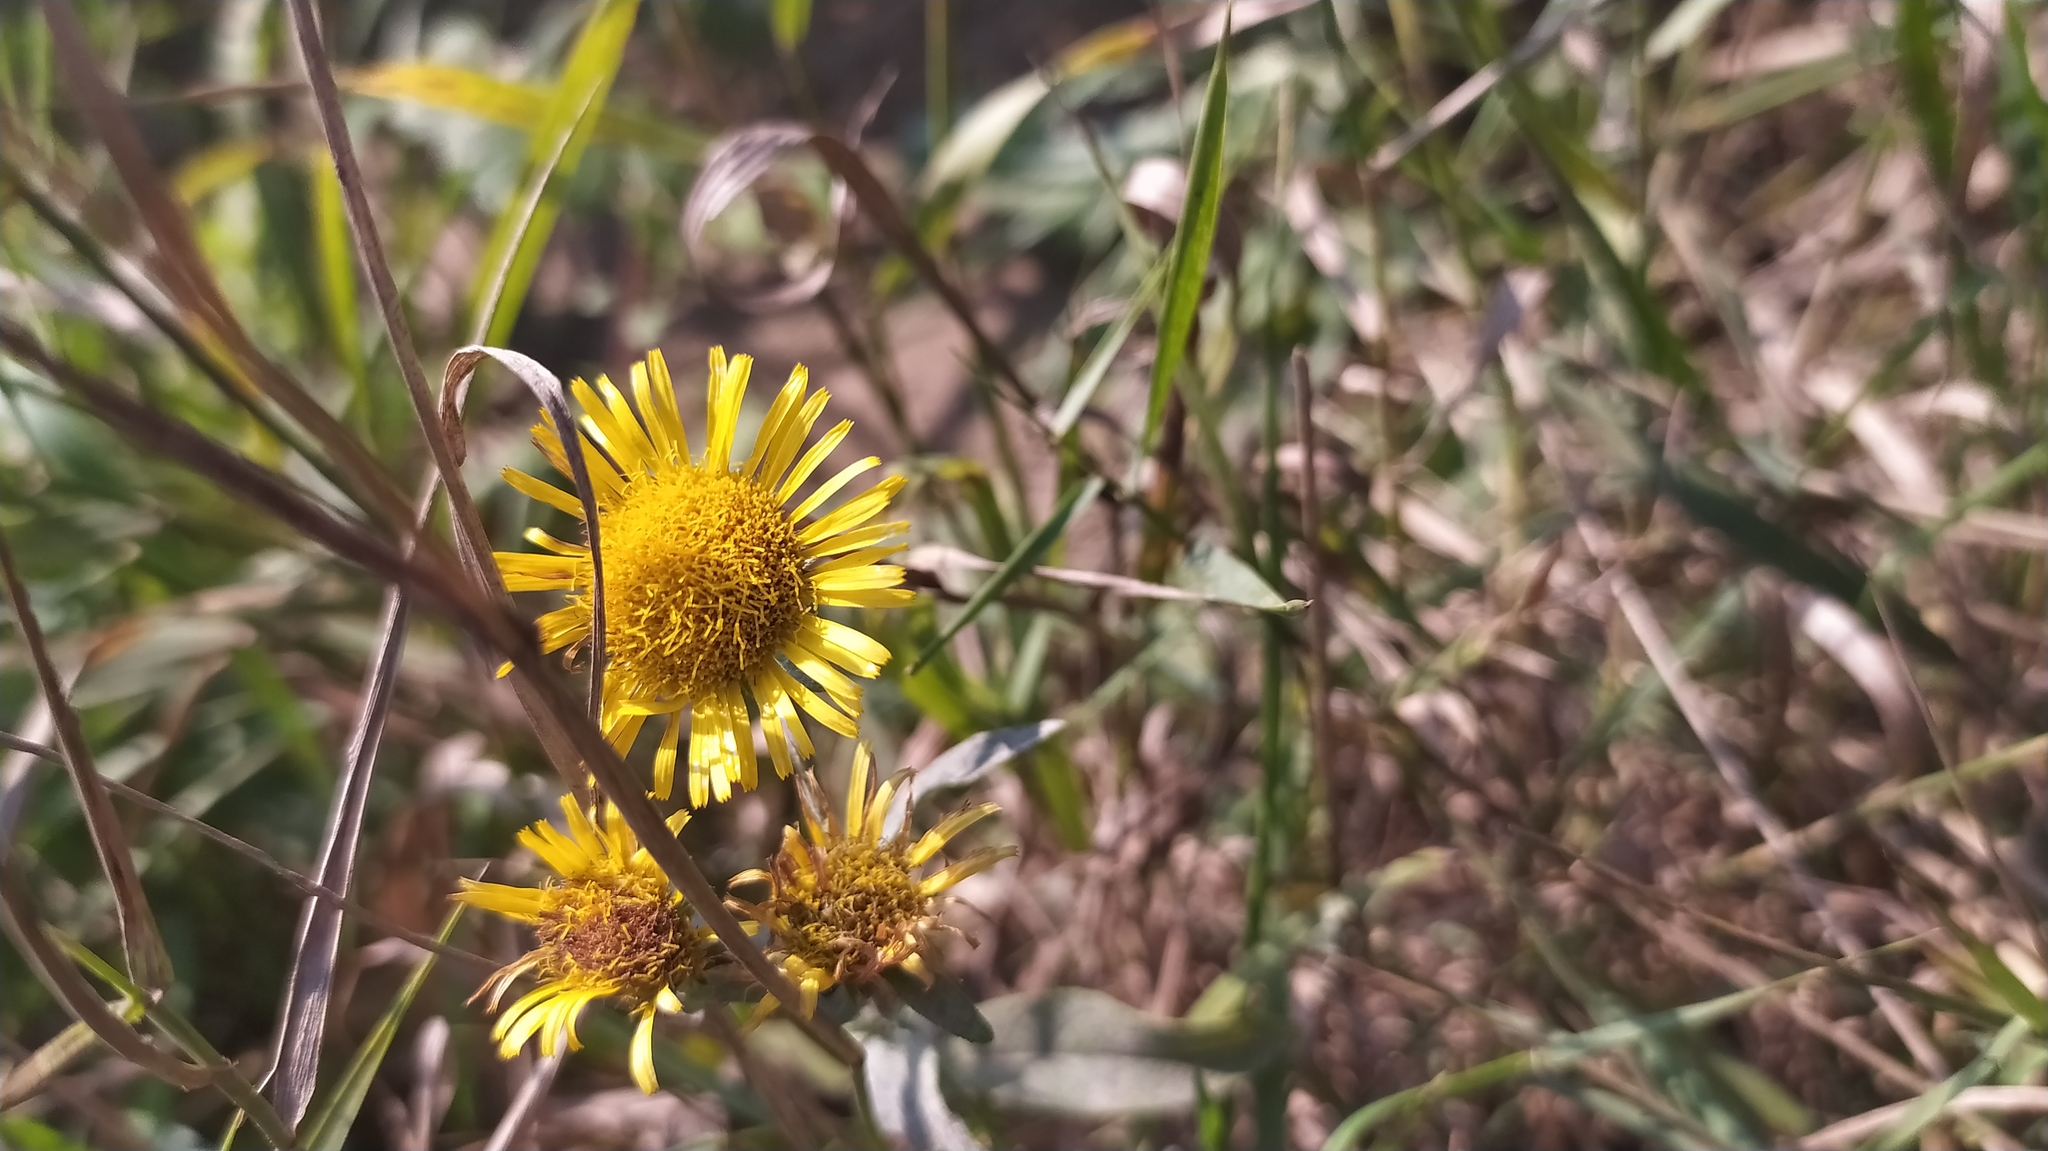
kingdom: Plantae
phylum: Tracheophyta
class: Magnoliopsida
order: Asterales
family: Asteraceae
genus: Pentanema
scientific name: Pentanema britannicum
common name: British elecampane
